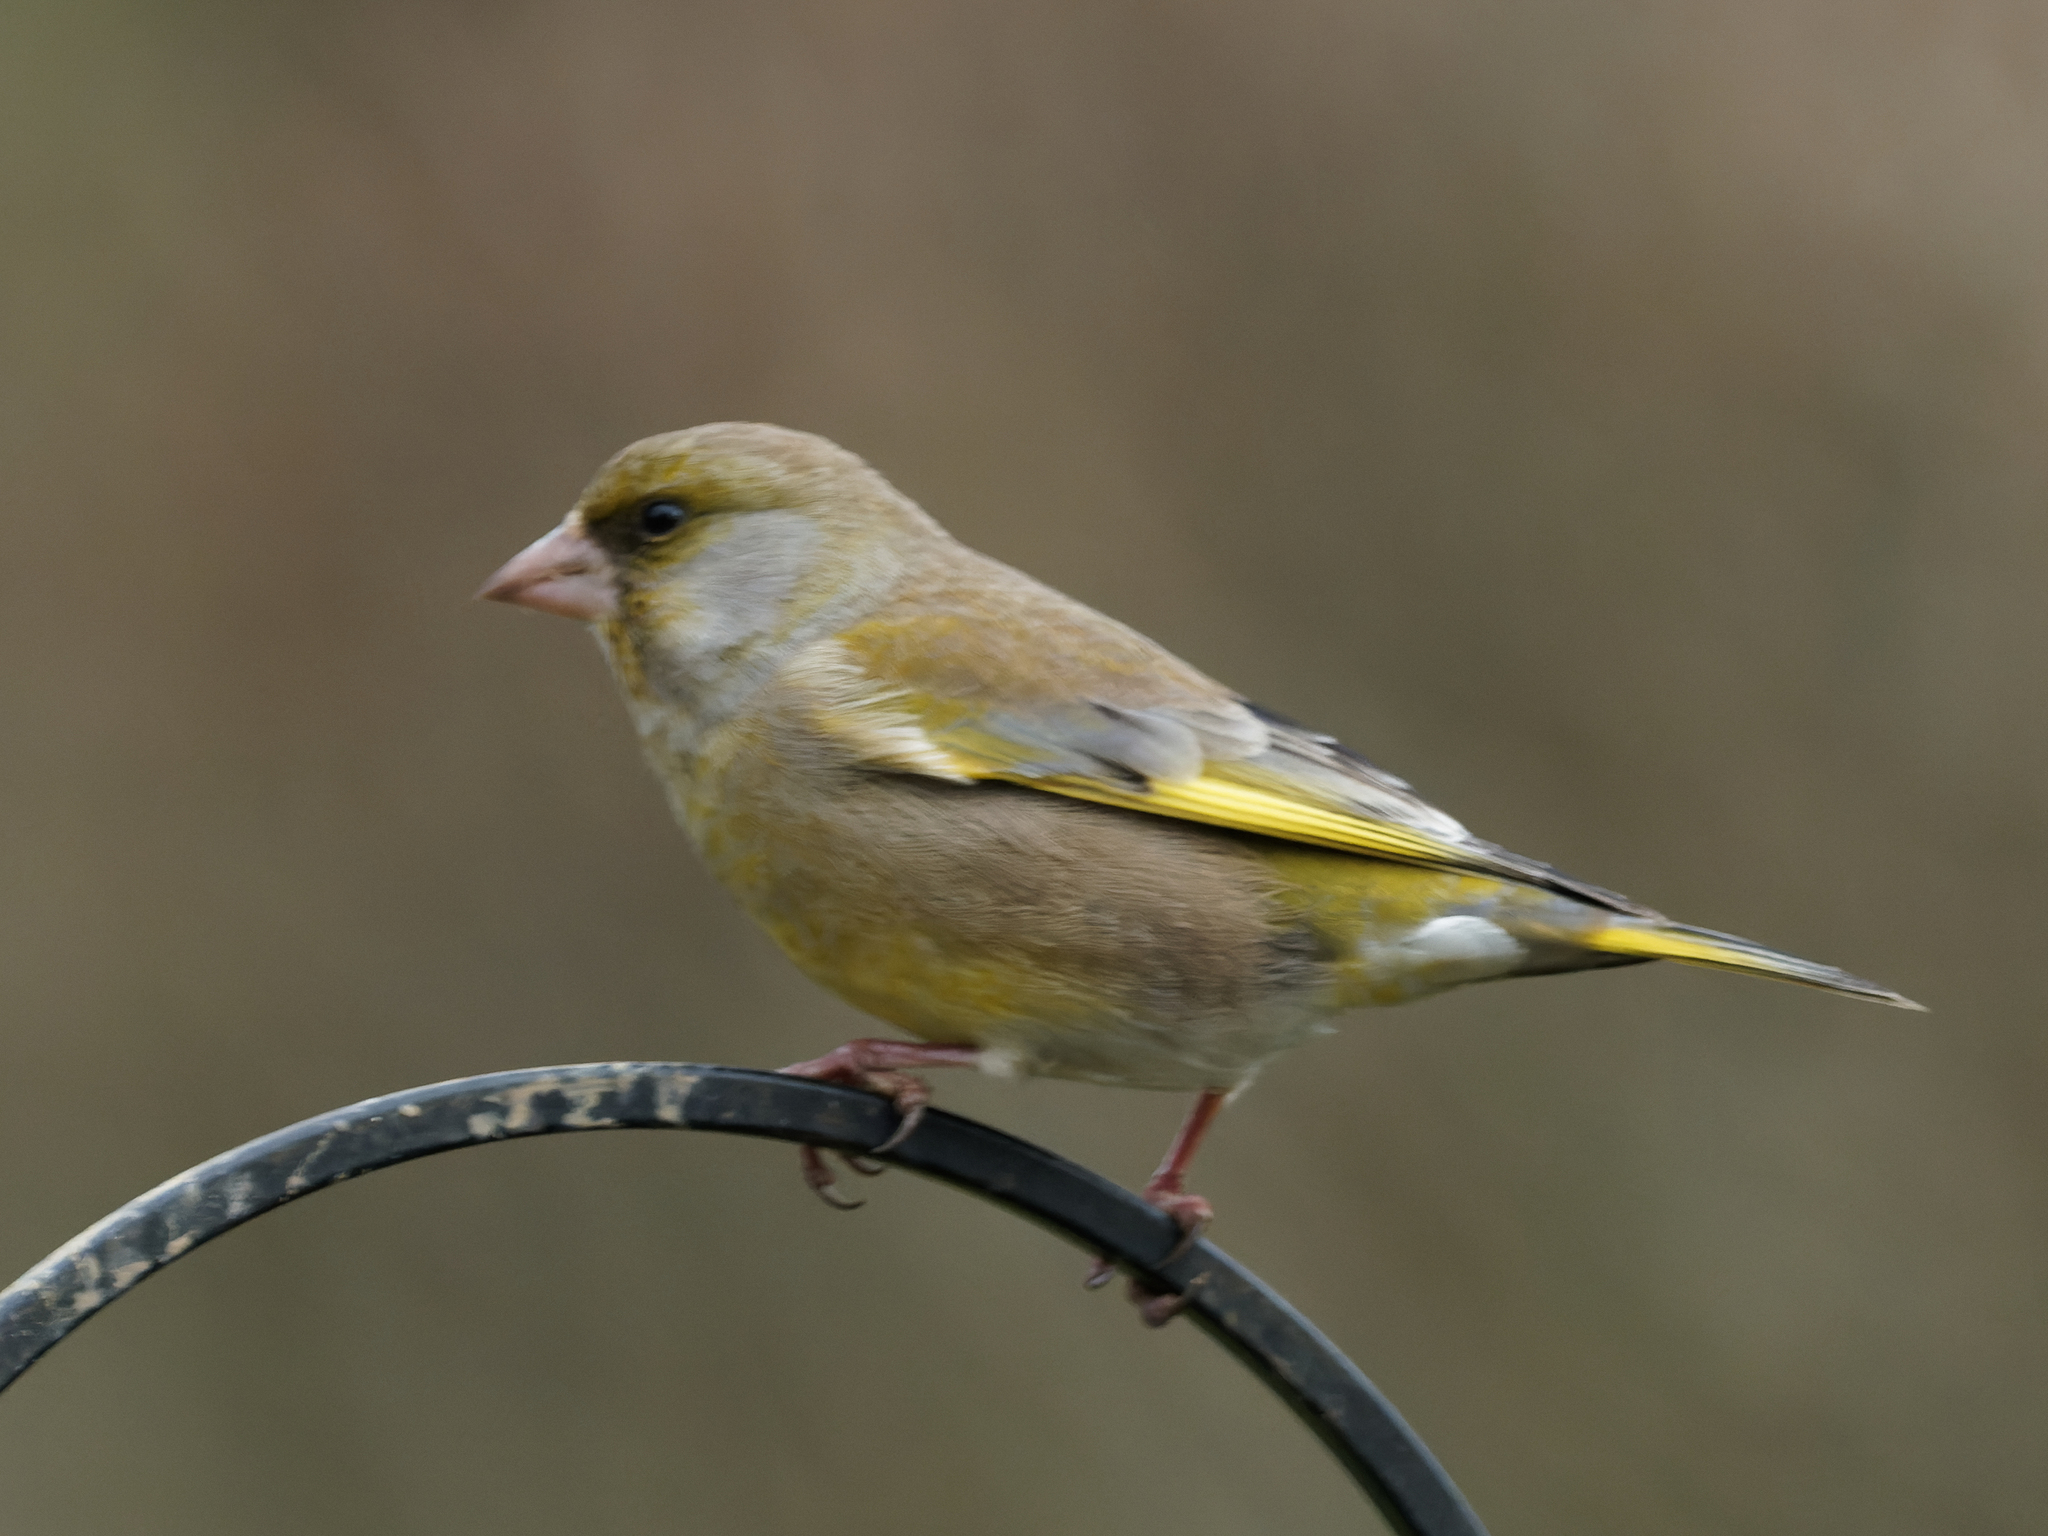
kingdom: Plantae
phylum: Tracheophyta
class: Liliopsida
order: Poales
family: Poaceae
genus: Chloris
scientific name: Chloris chloris
